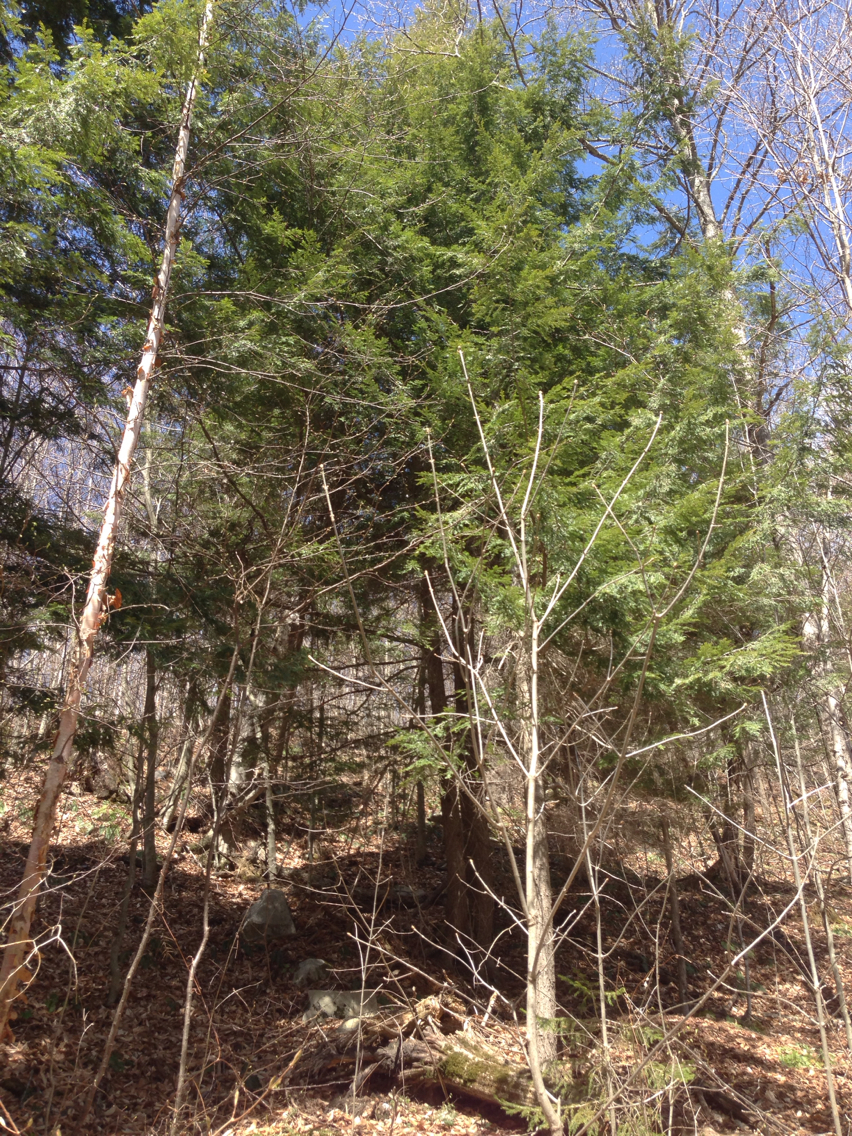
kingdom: Plantae
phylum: Tracheophyta
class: Pinopsida
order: Pinales
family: Pinaceae
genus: Tsuga
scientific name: Tsuga canadensis
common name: Eastern hemlock
